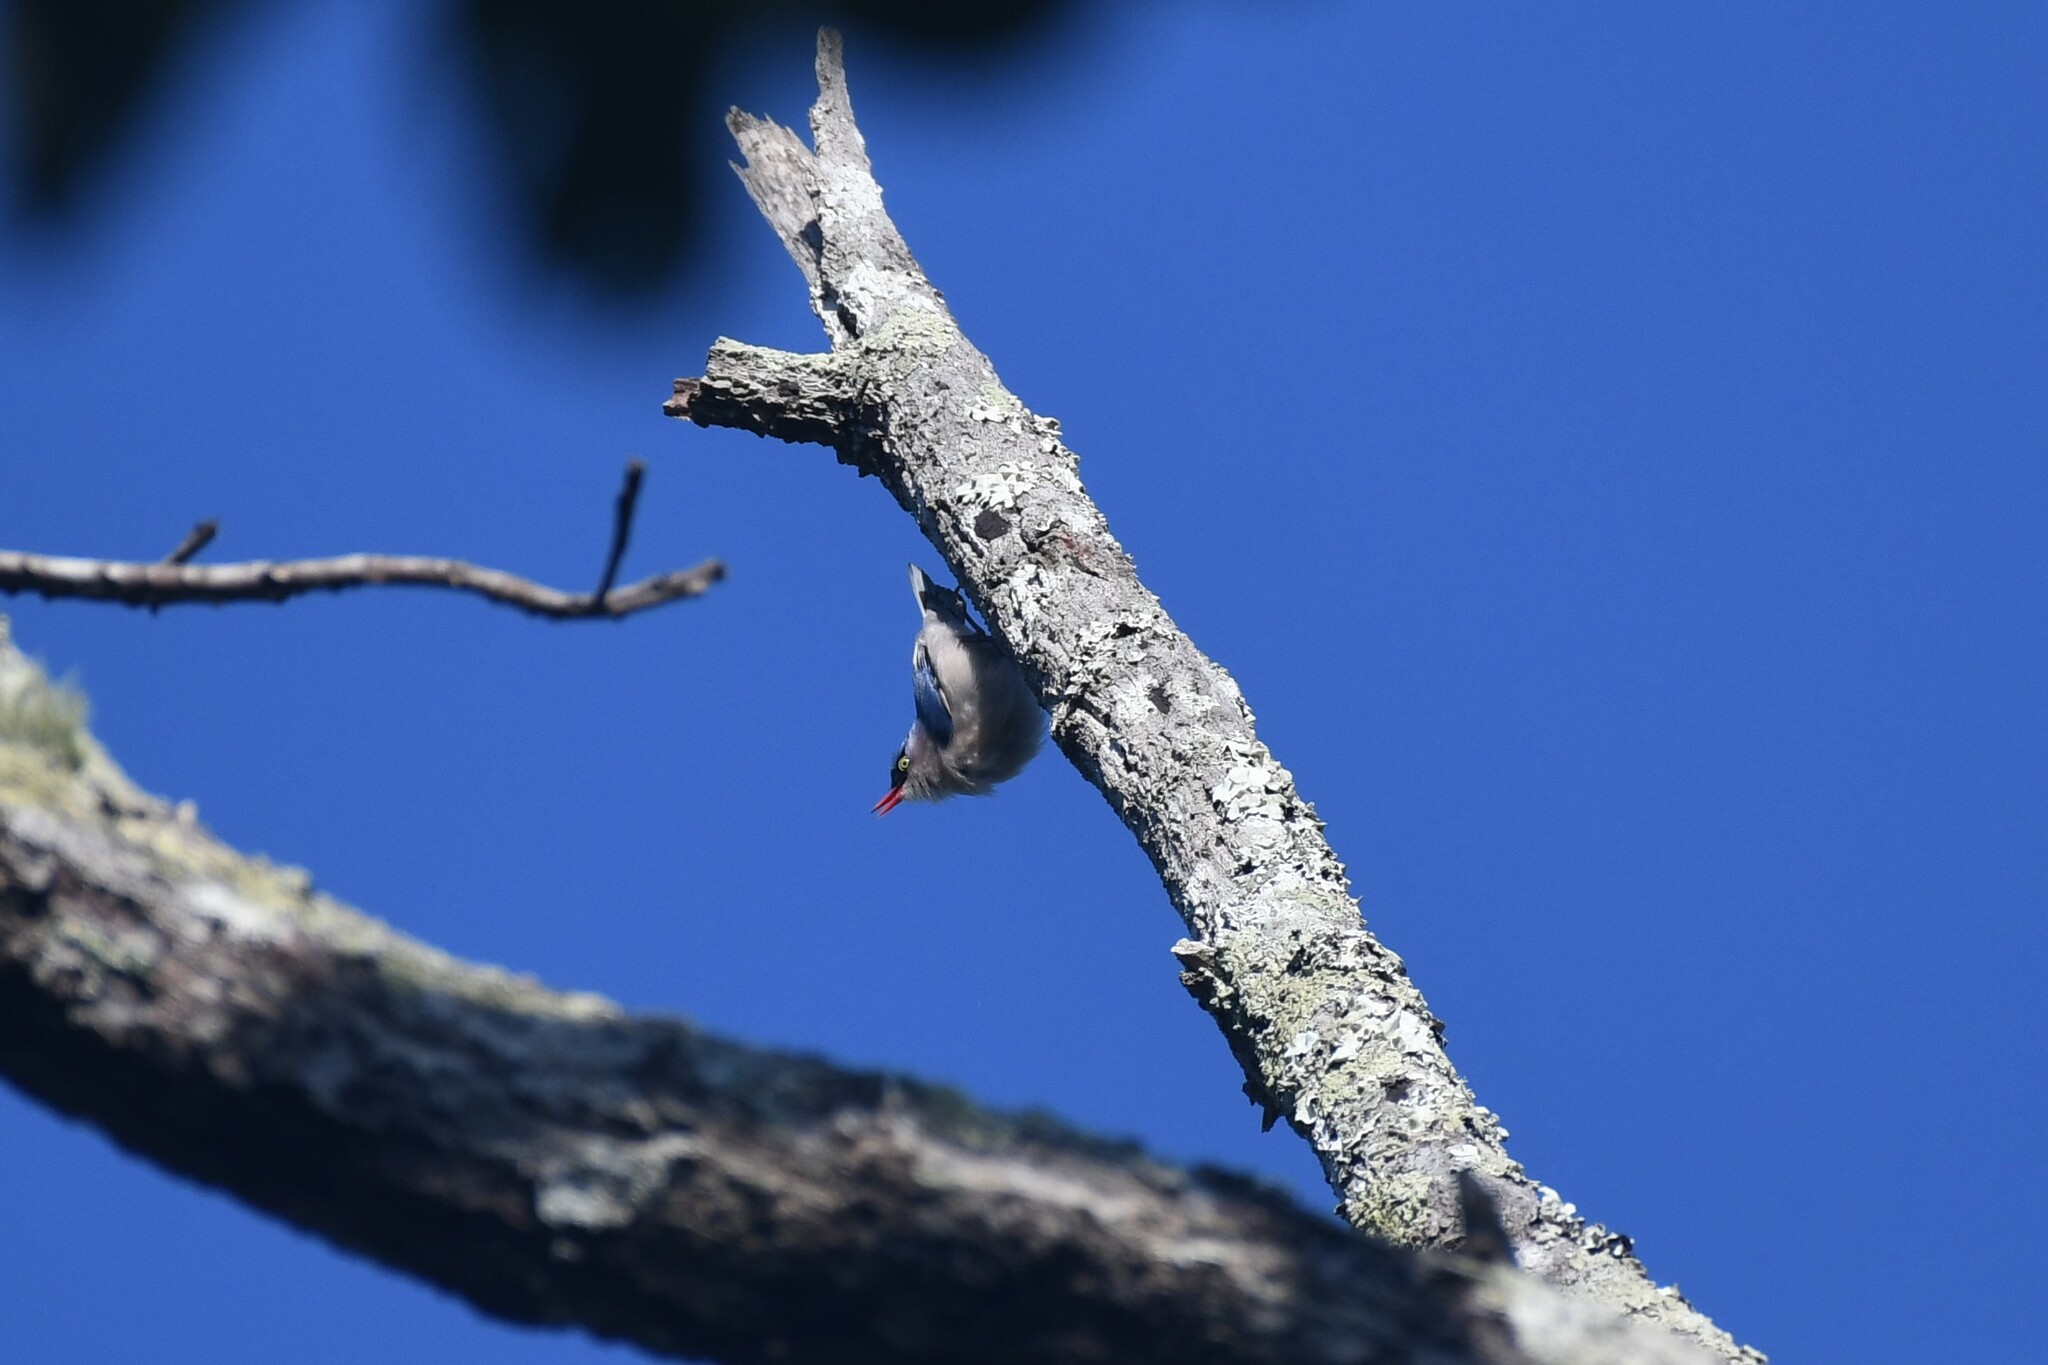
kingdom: Animalia
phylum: Chordata
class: Aves
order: Passeriformes
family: Sittidae
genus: Sitta
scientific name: Sitta frontalis
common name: Velvet-fronted nuthatch
